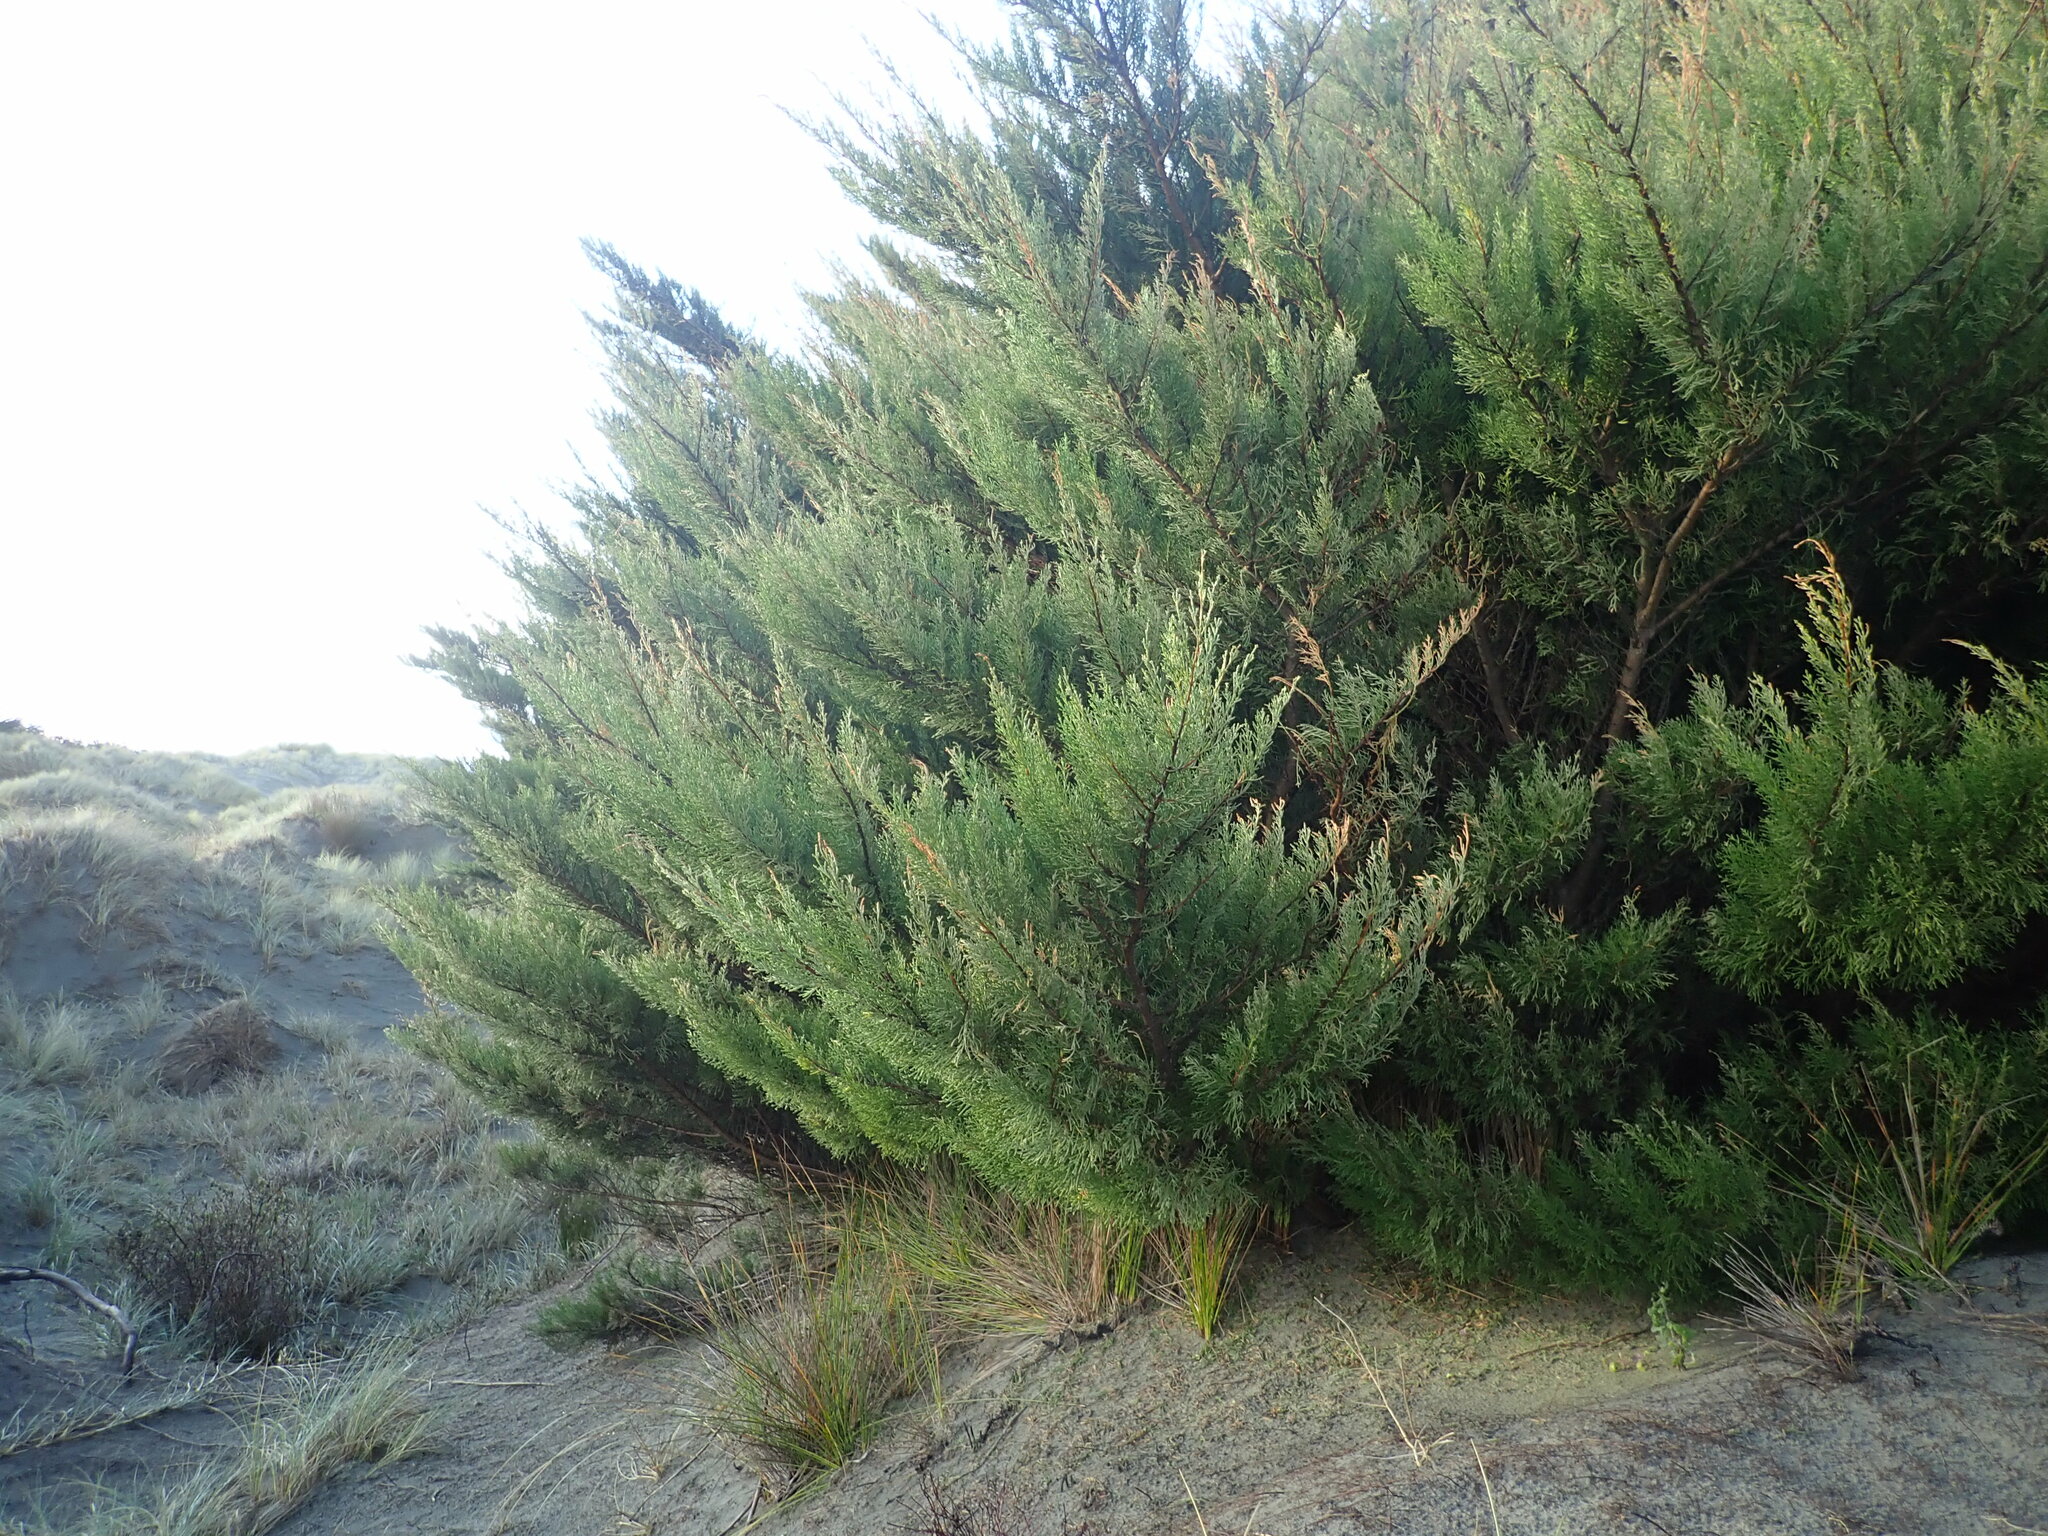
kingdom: Plantae
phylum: Tracheophyta
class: Pinopsida
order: Pinales
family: Cupressaceae
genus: Cupressus
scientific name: Cupressus macrocarpa
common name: Monterey cypress
